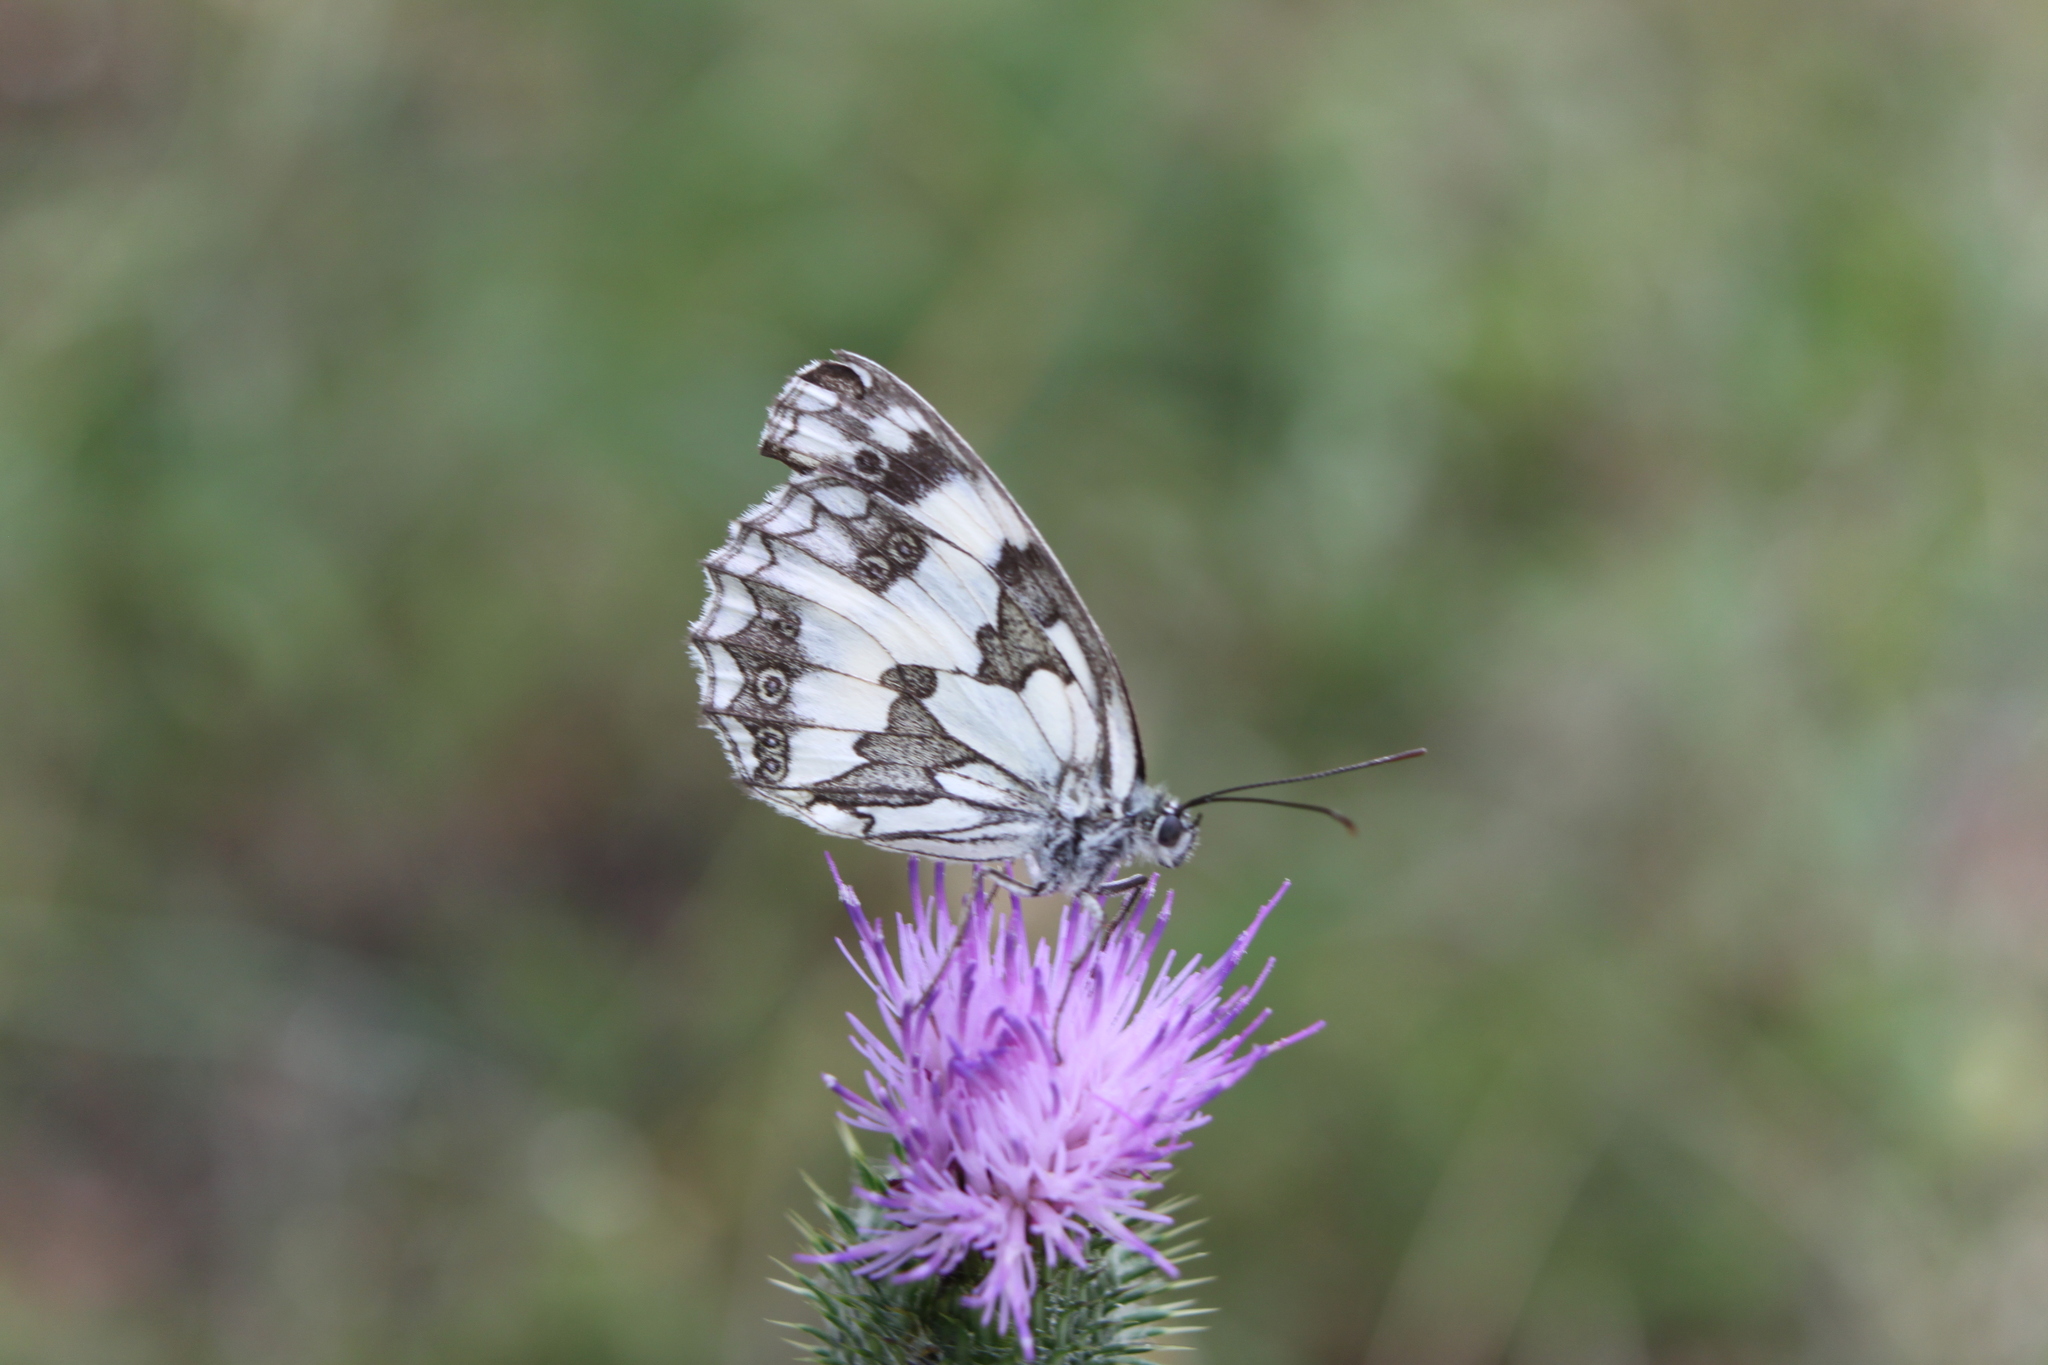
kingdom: Animalia
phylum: Arthropoda
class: Insecta
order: Lepidoptera
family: Nymphalidae
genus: Melanargia
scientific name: Melanargia galathea
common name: Marbled white
